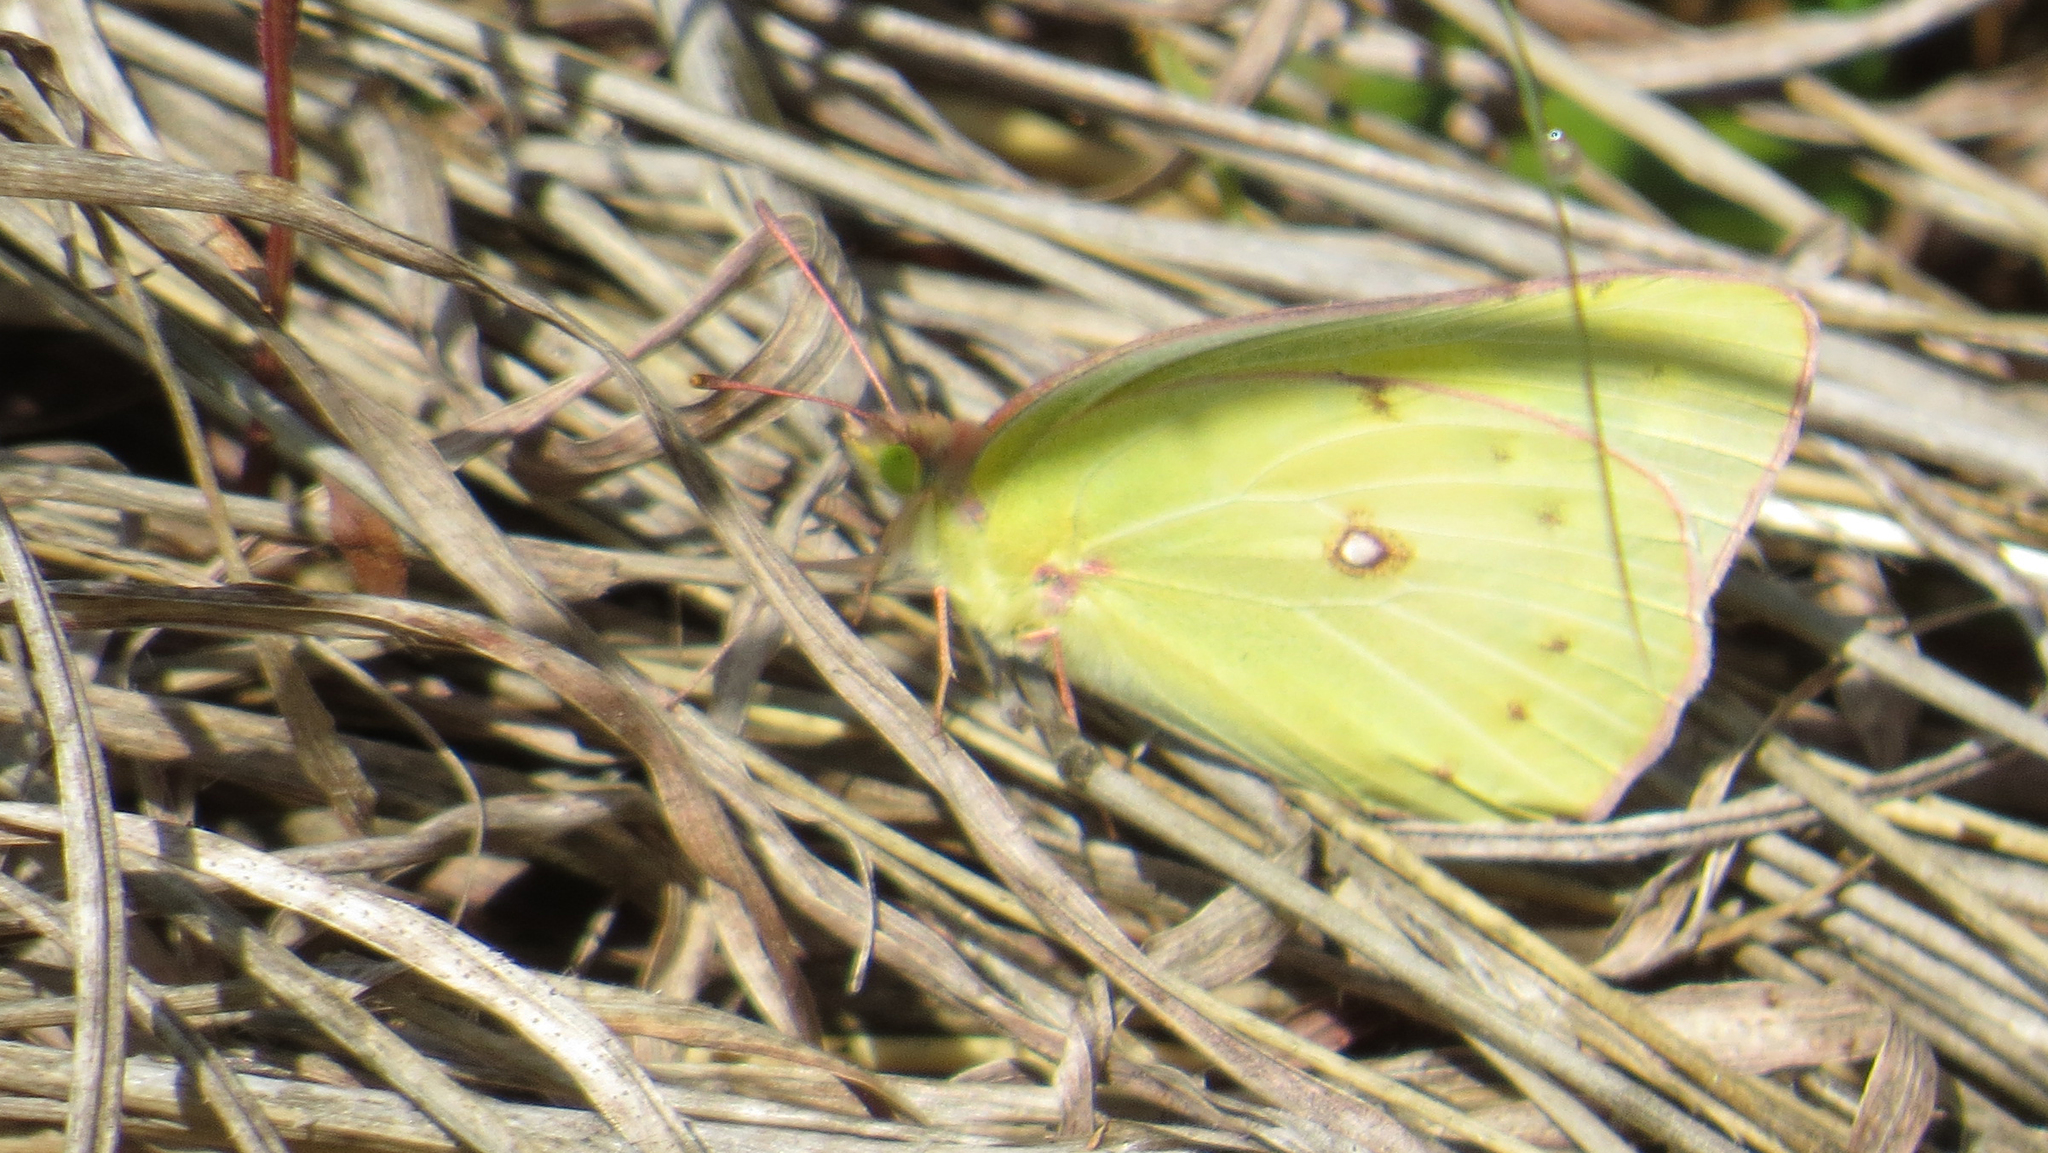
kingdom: Animalia
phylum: Arthropoda
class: Insecta
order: Lepidoptera
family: Pieridae
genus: Colias
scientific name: Colias eurytheme
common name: Alfalfa butterfly
